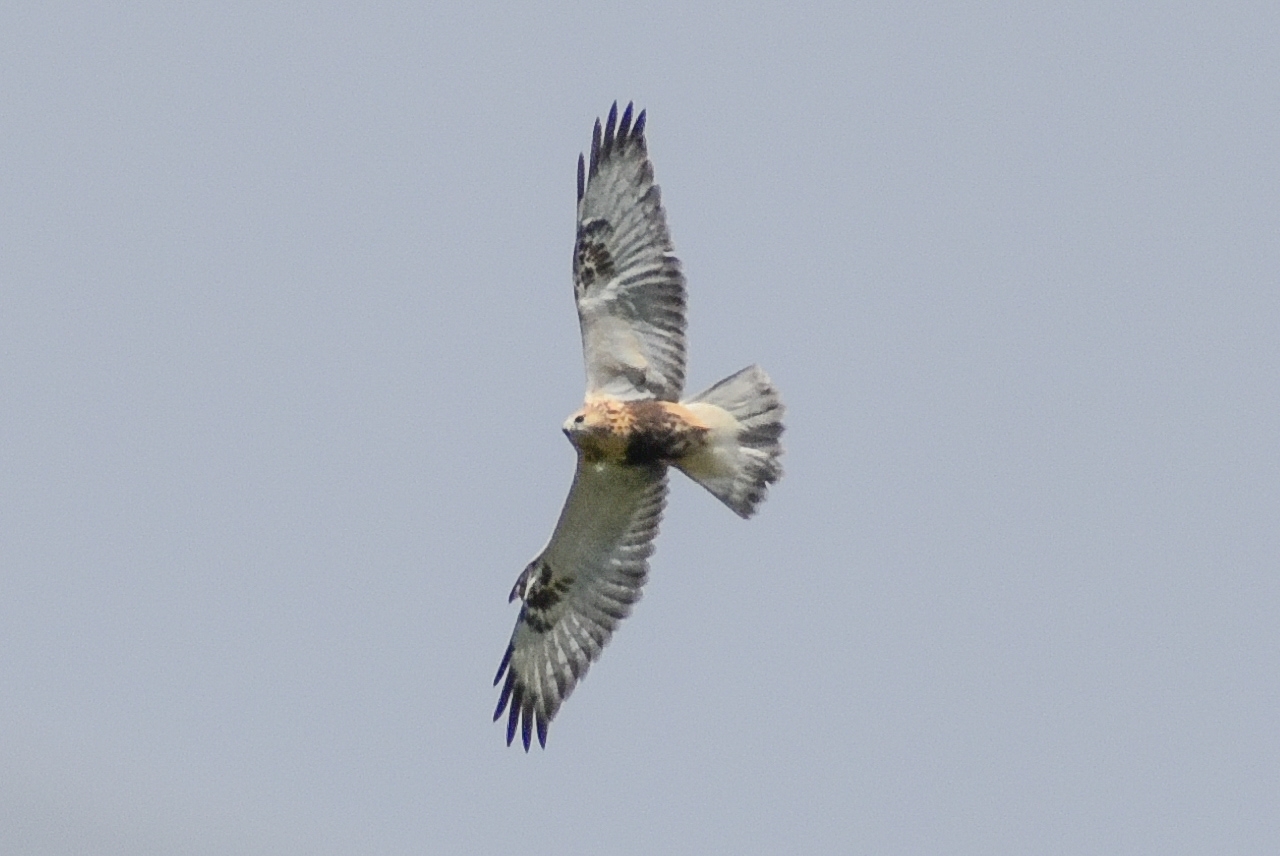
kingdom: Animalia
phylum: Chordata
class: Aves
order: Accipitriformes
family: Accipitridae
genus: Buteo
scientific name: Buteo lagopus
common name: Rough-legged buzzard
